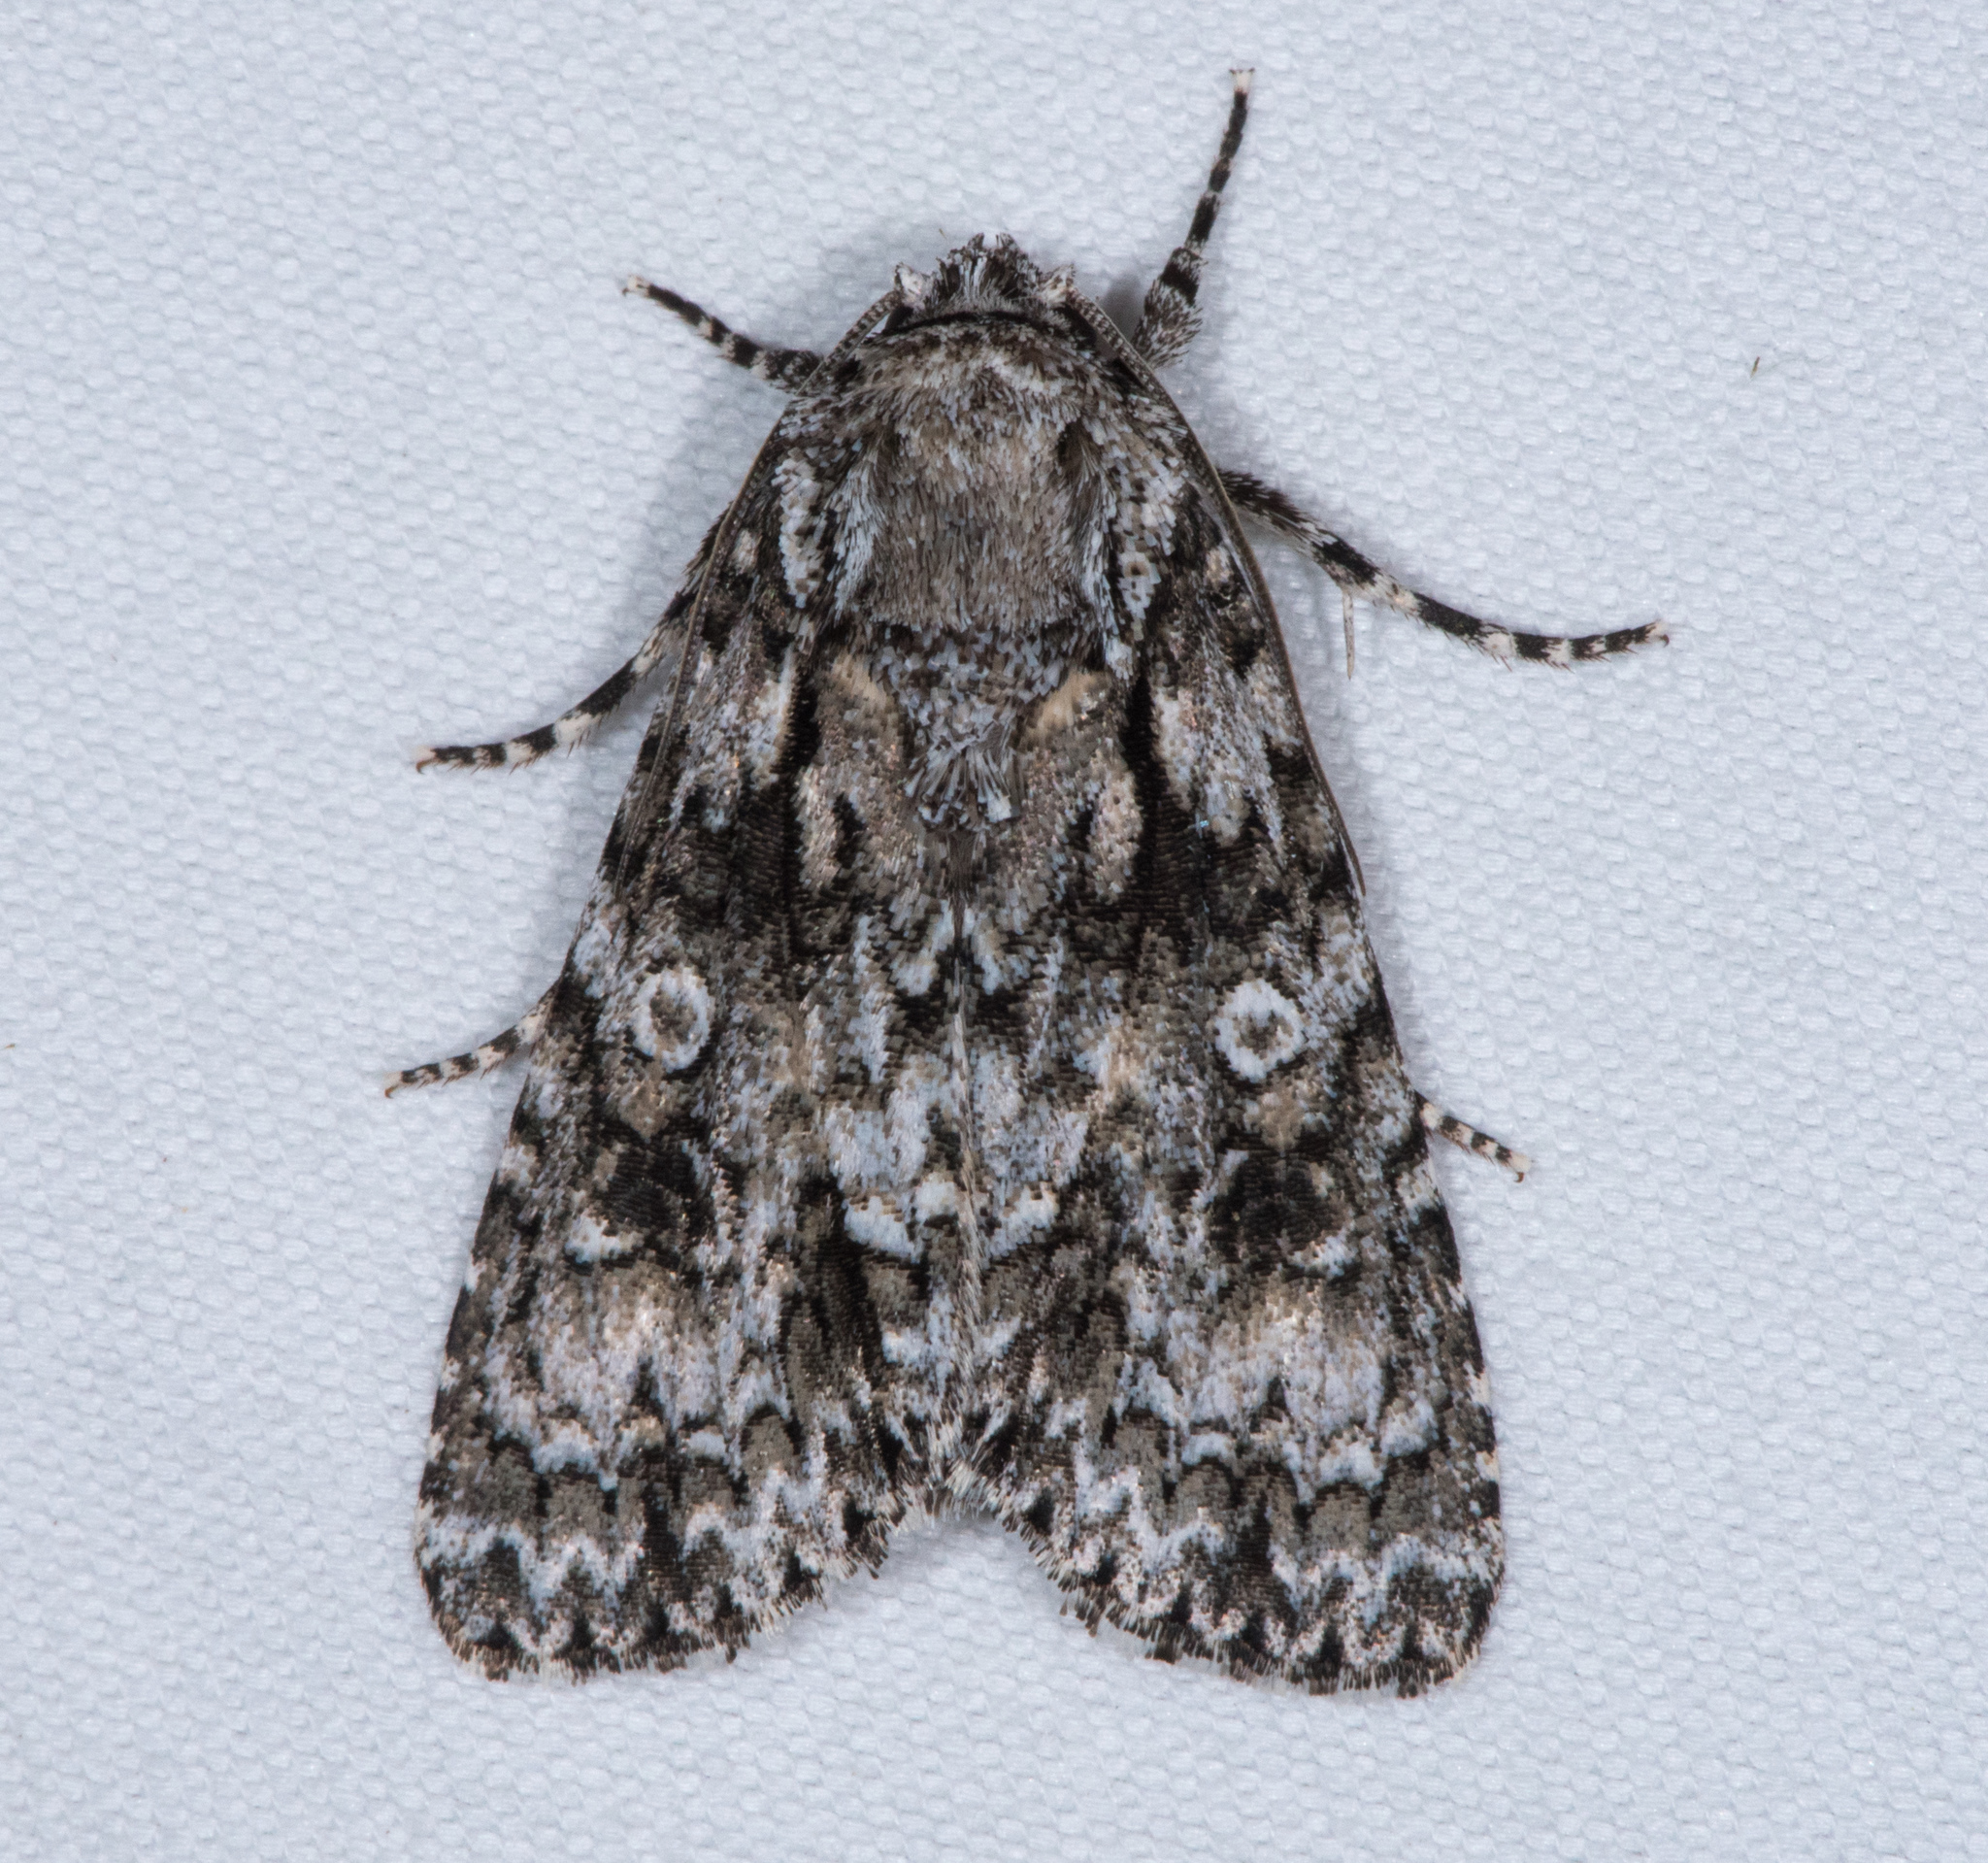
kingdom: Animalia
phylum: Arthropoda
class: Insecta
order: Lepidoptera
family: Noctuidae
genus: Acronicta
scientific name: Acronicta marmorata
